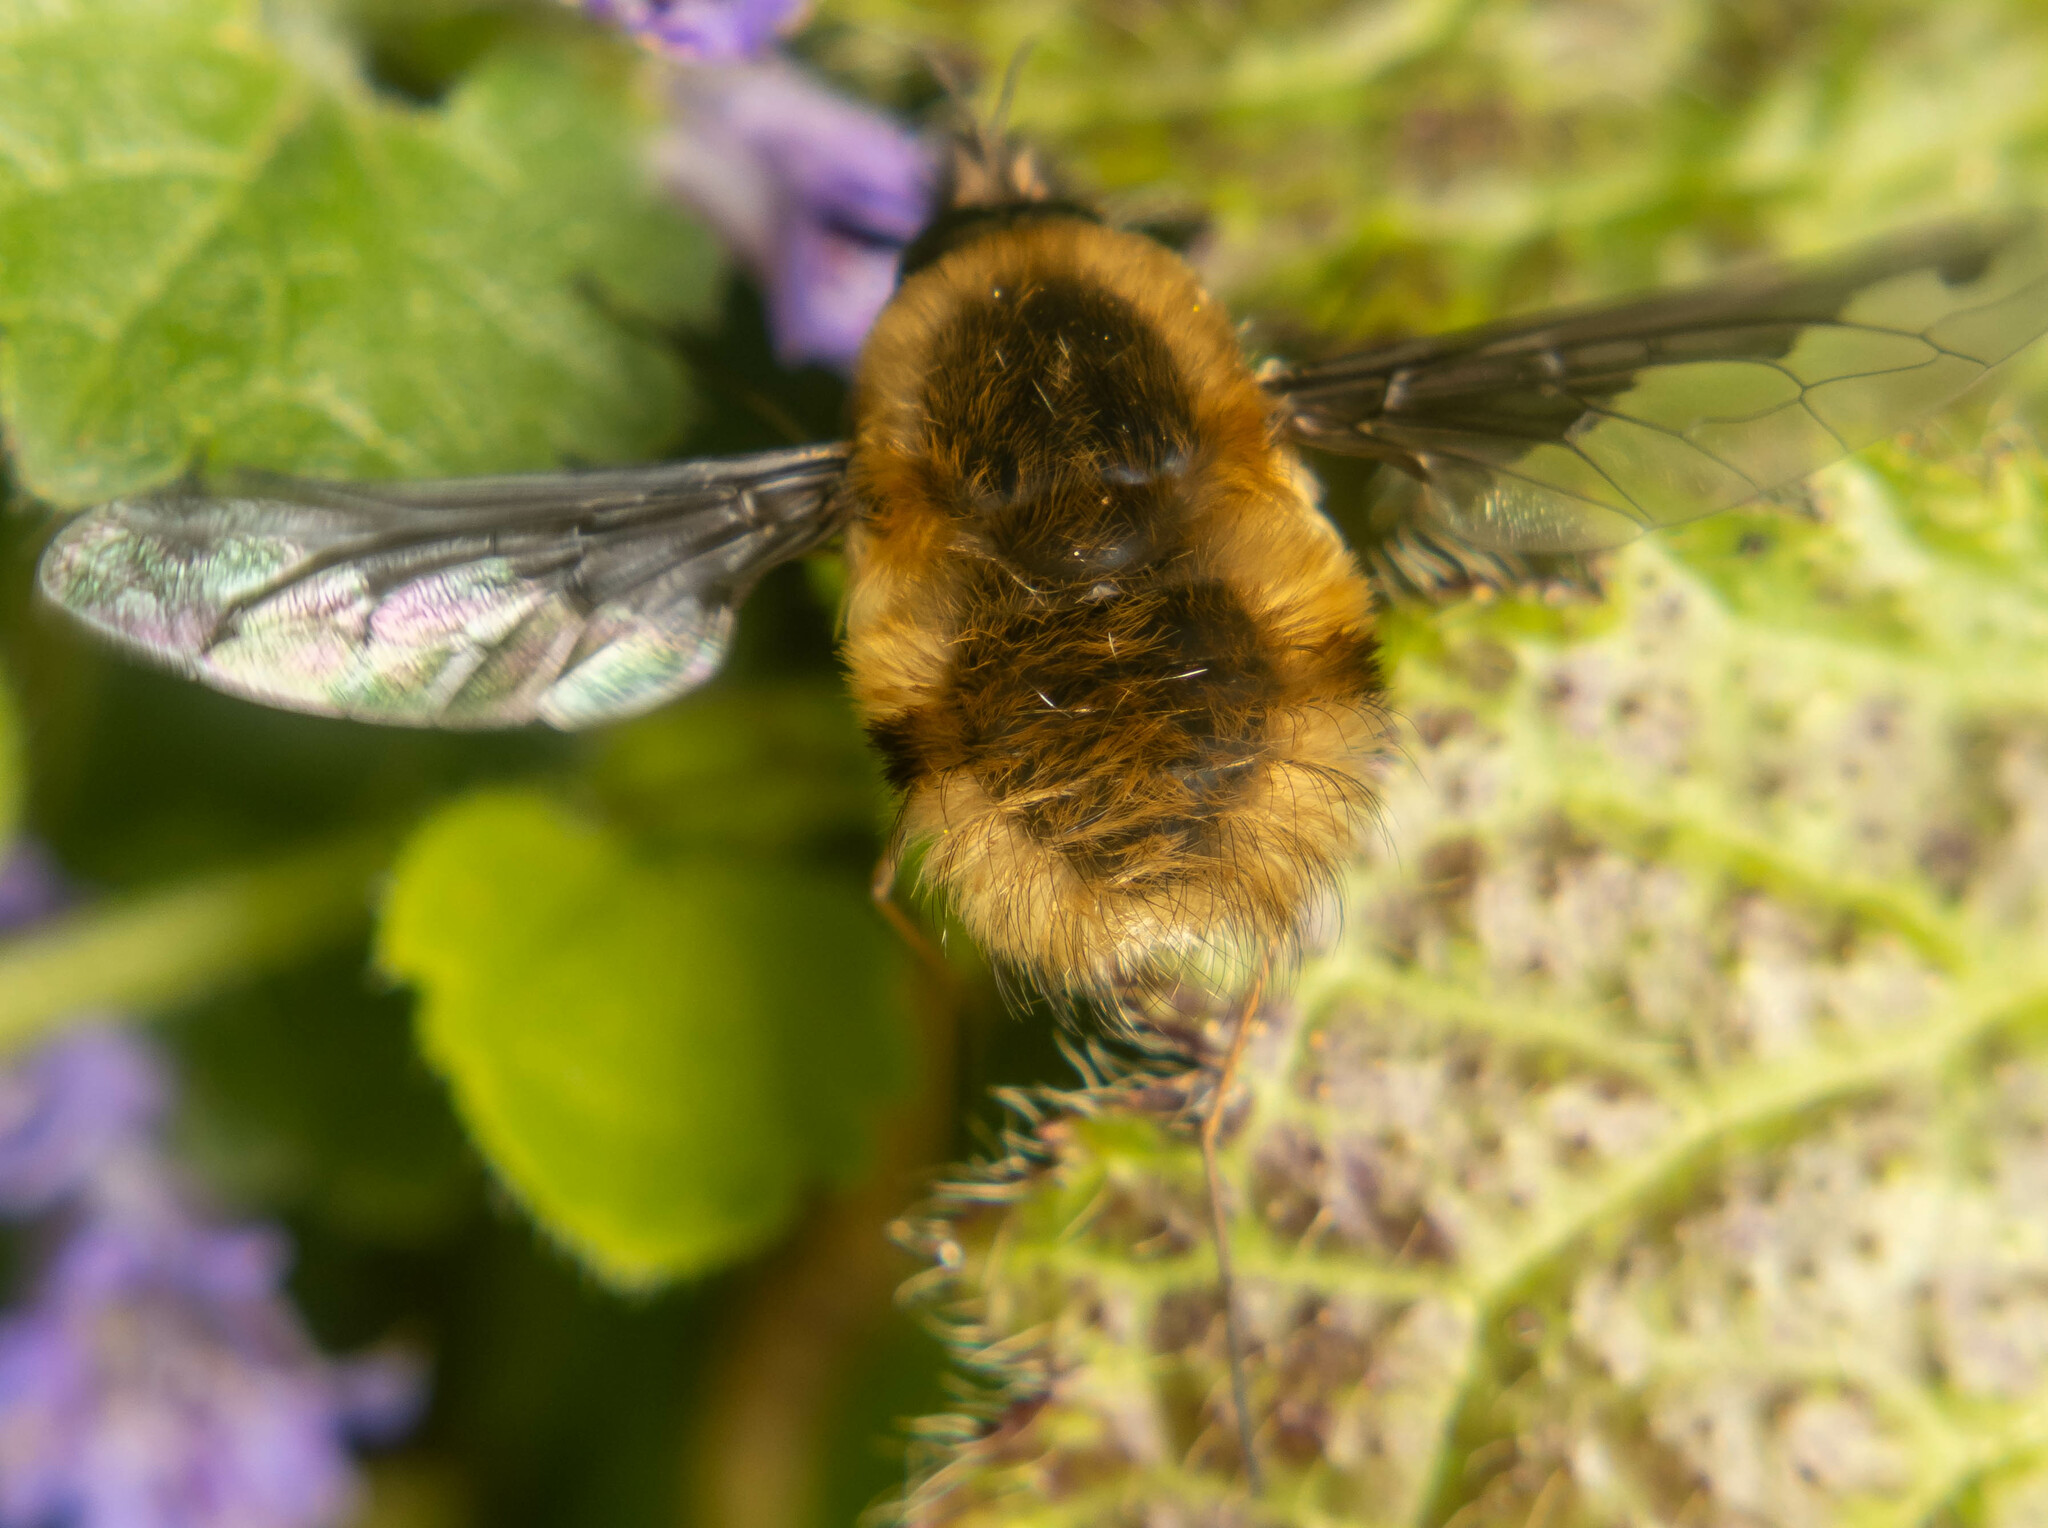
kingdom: Animalia
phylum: Arthropoda
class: Insecta
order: Diptera
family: Bombyliidae
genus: Bombylius
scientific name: Bombylius major
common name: Bee fly
